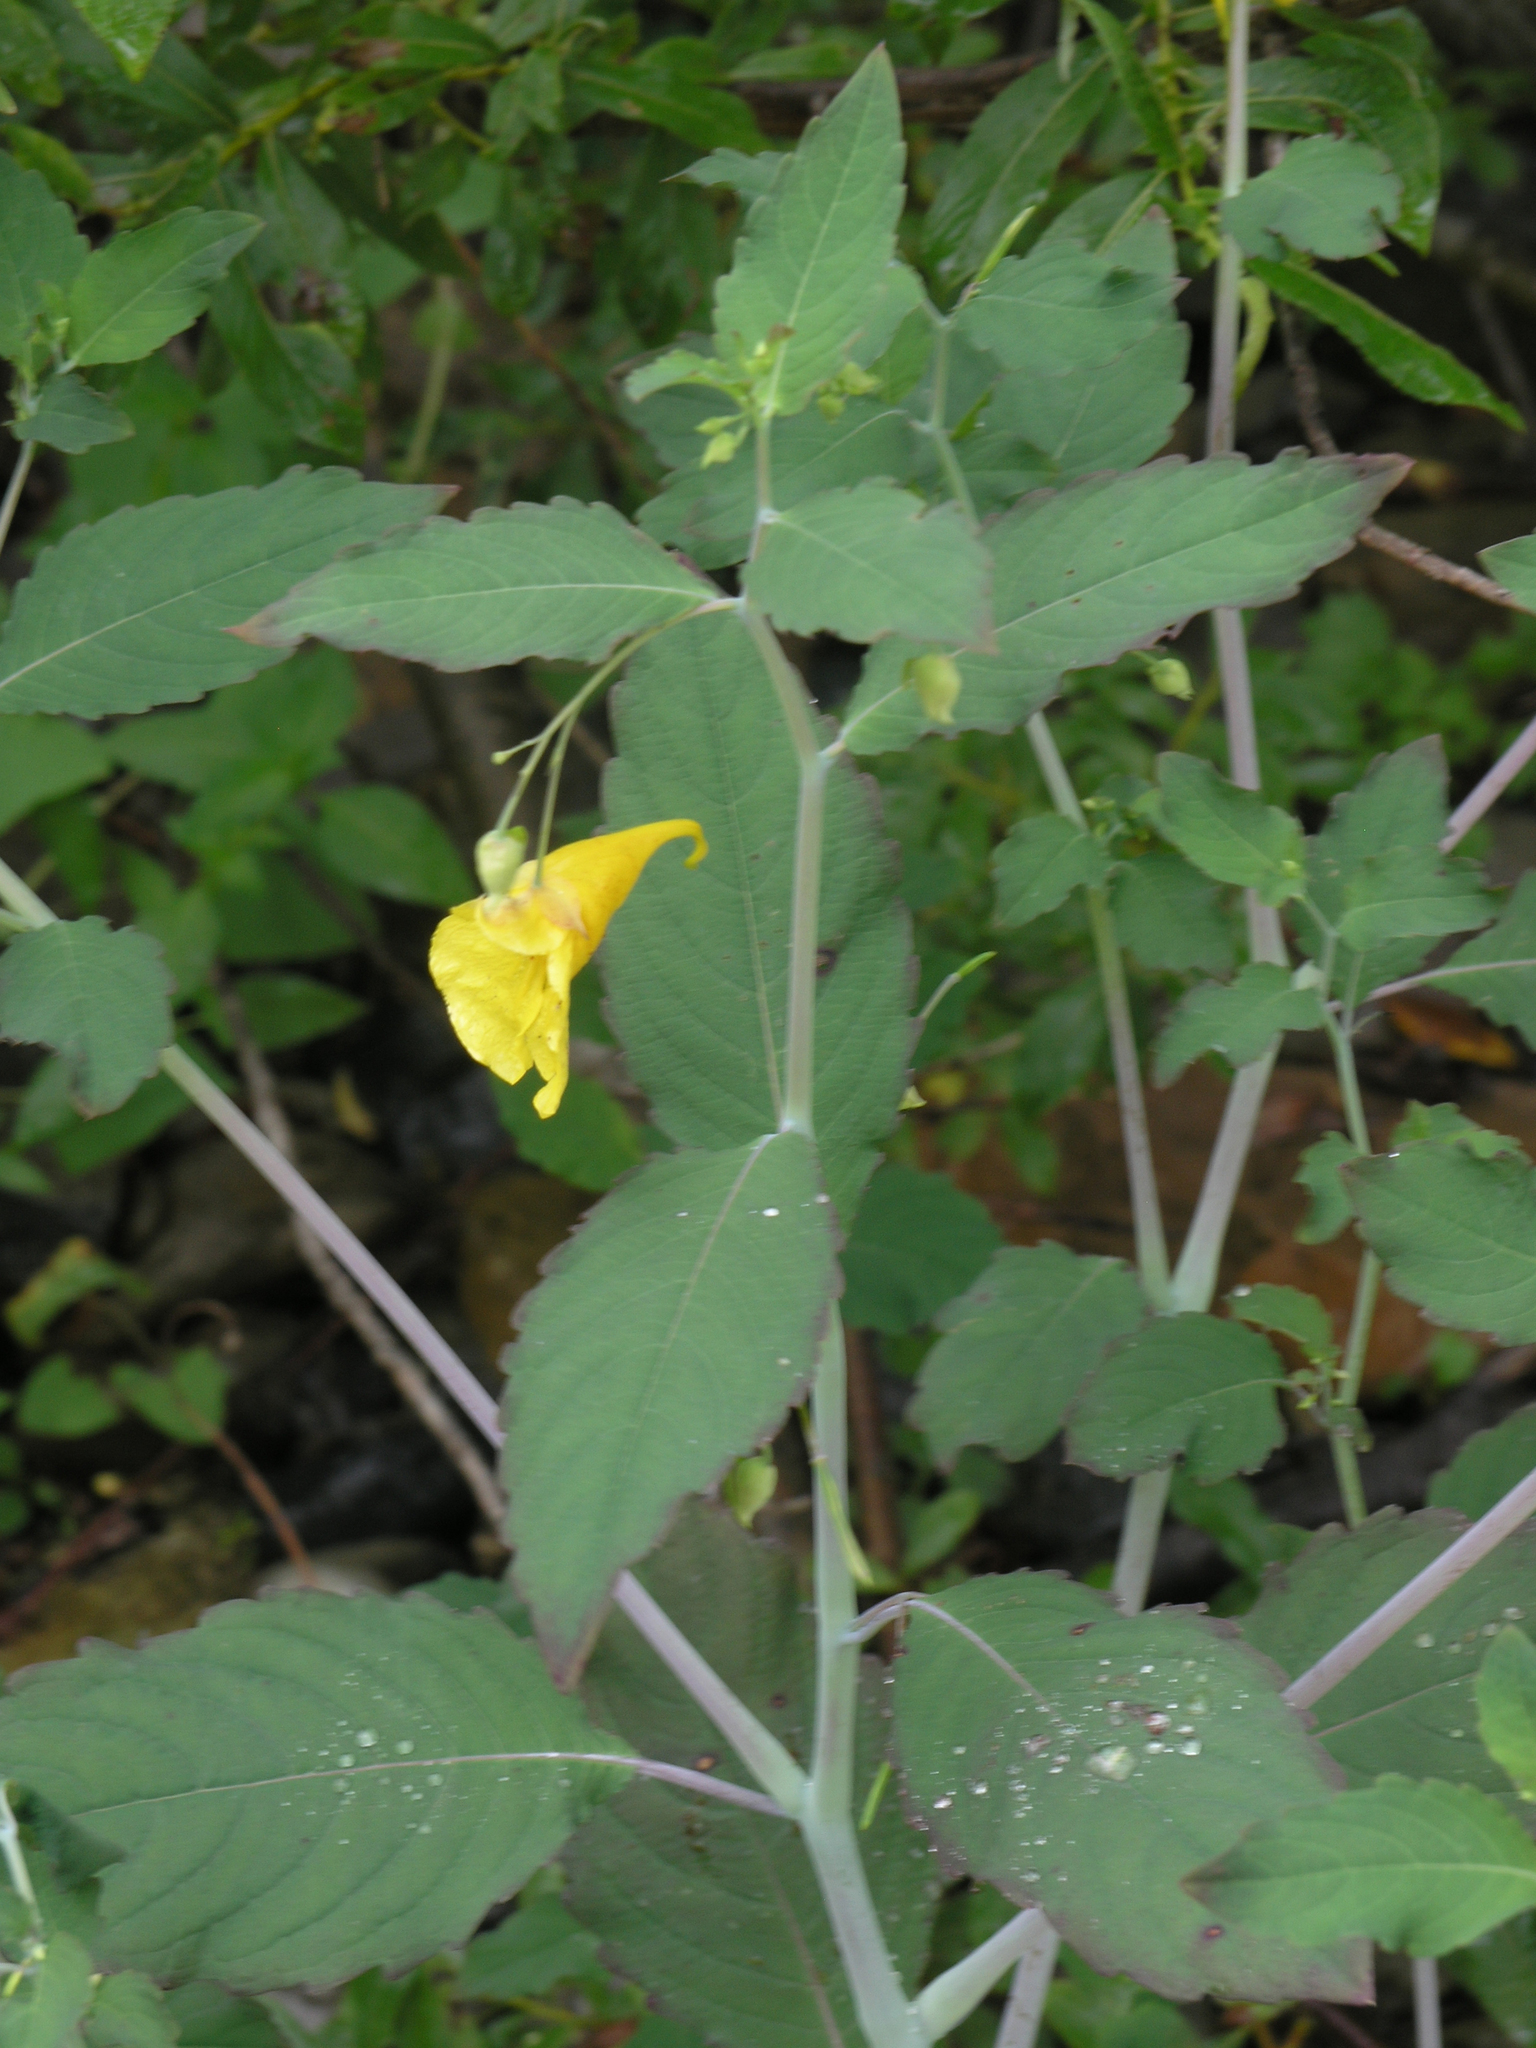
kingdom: Plantae
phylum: Tracheophyta
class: Magnoliopsida
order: Ericales
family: Balsaminaceae
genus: Impatiens
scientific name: Impatiens noli-tangere
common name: Touch-me-not balsam
